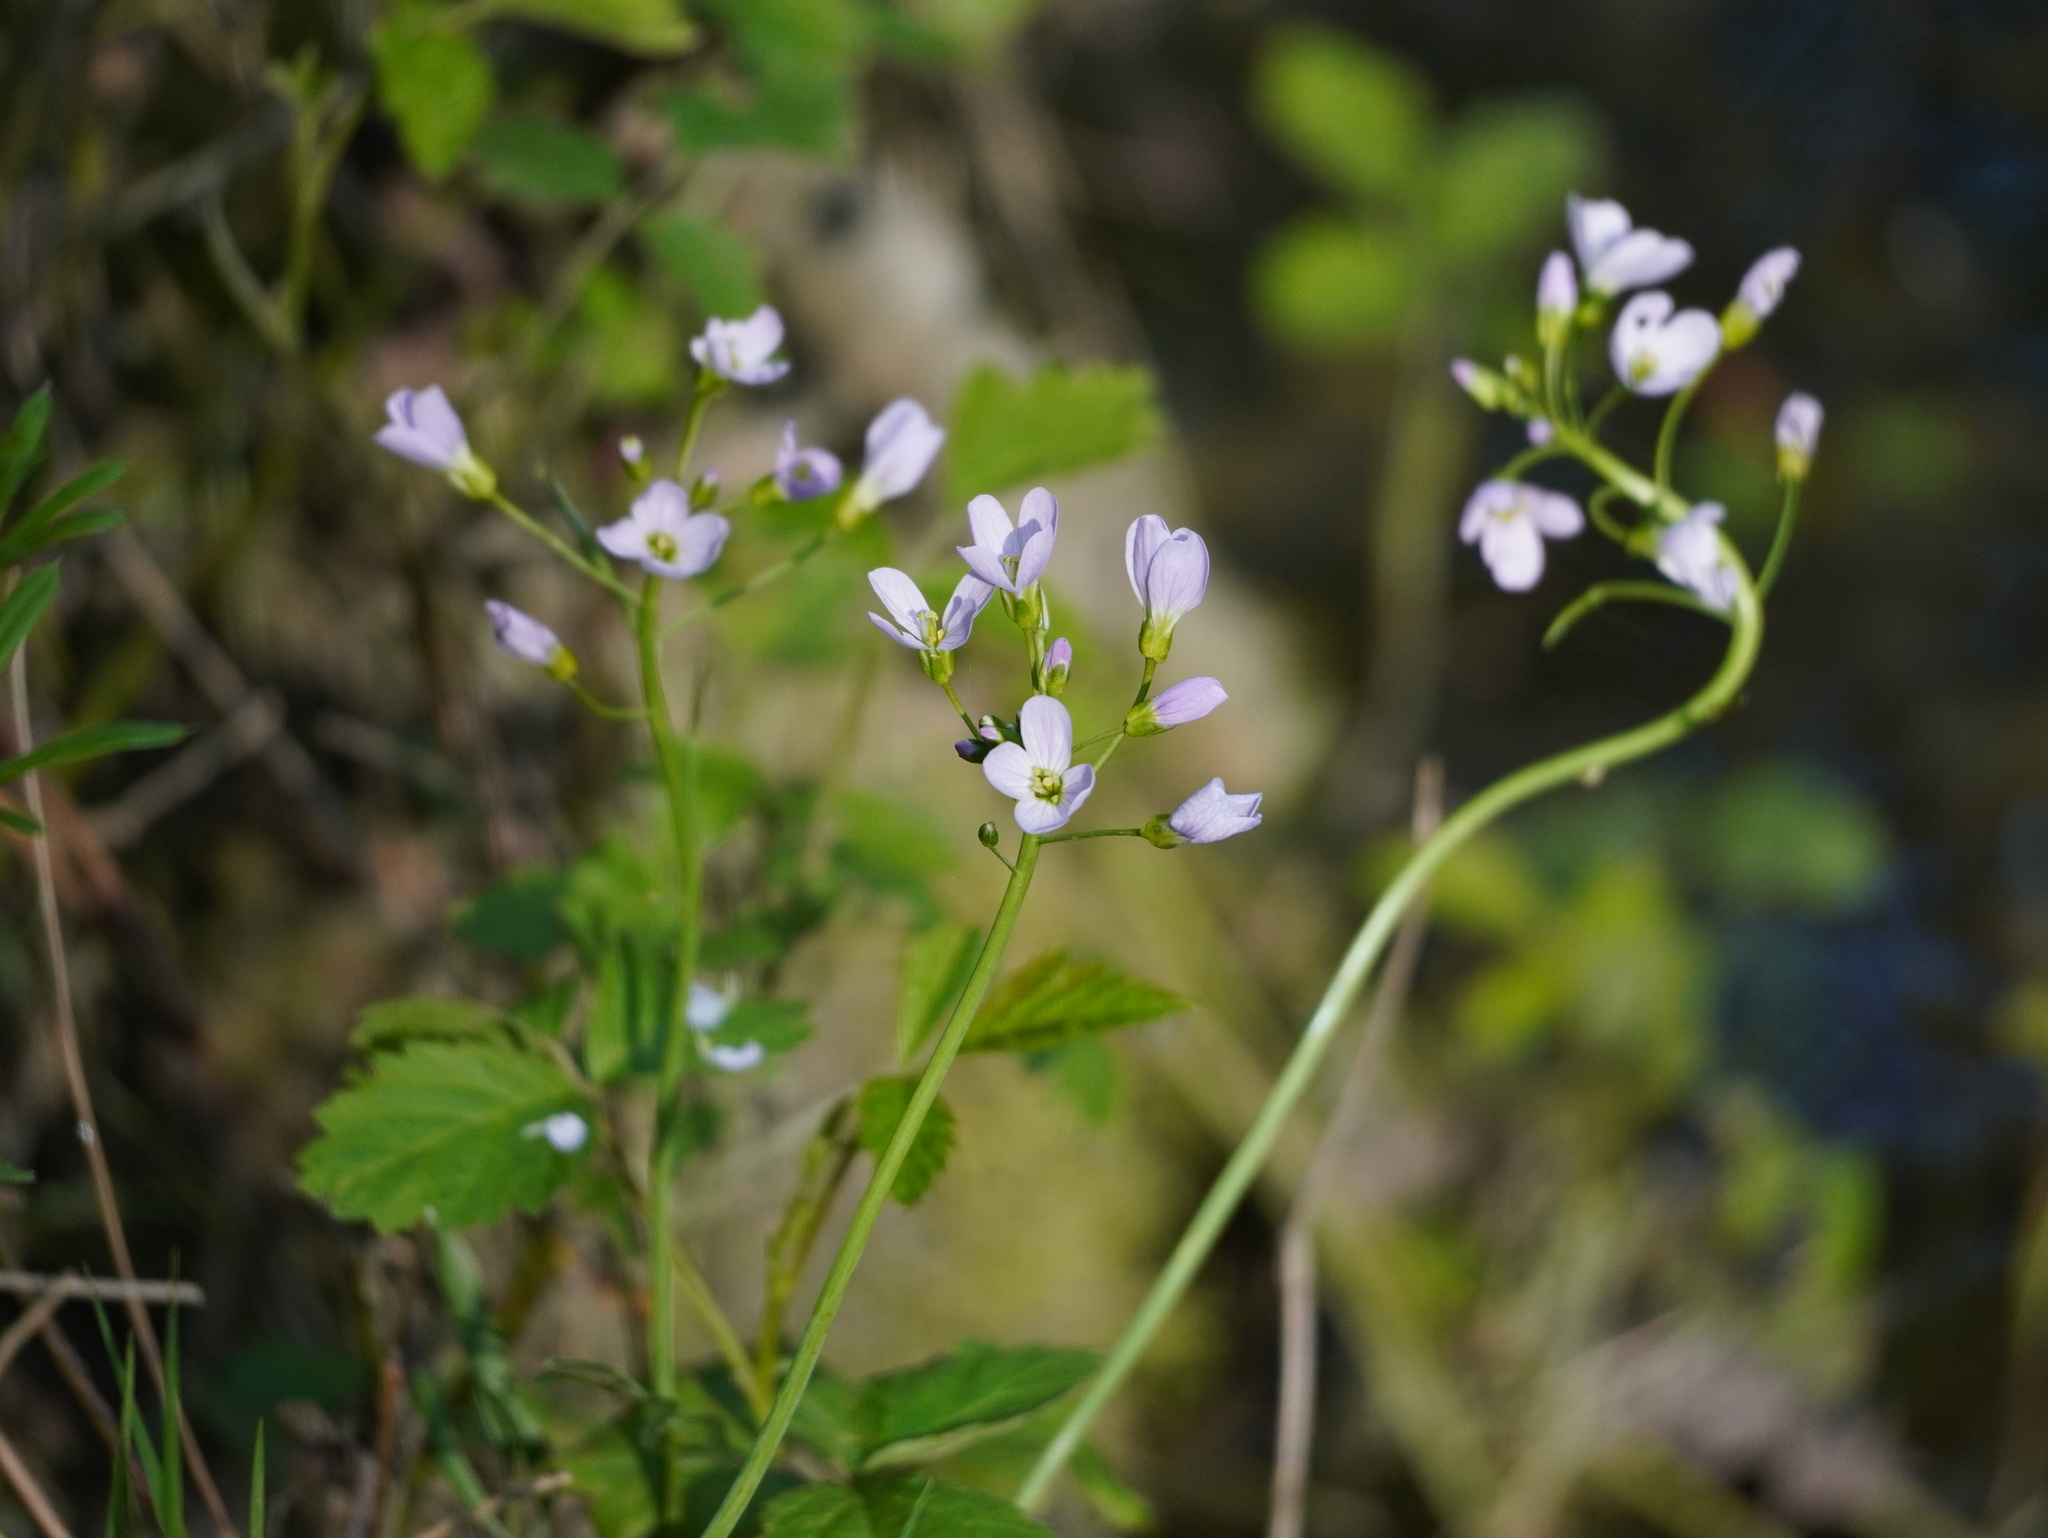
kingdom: Plantae
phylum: Tracheophyta
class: Magnoliopsida
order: Brassicales
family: Brassicaceae
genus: Cardamine
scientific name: Cardamine pratensis
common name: Cuckoo flower
